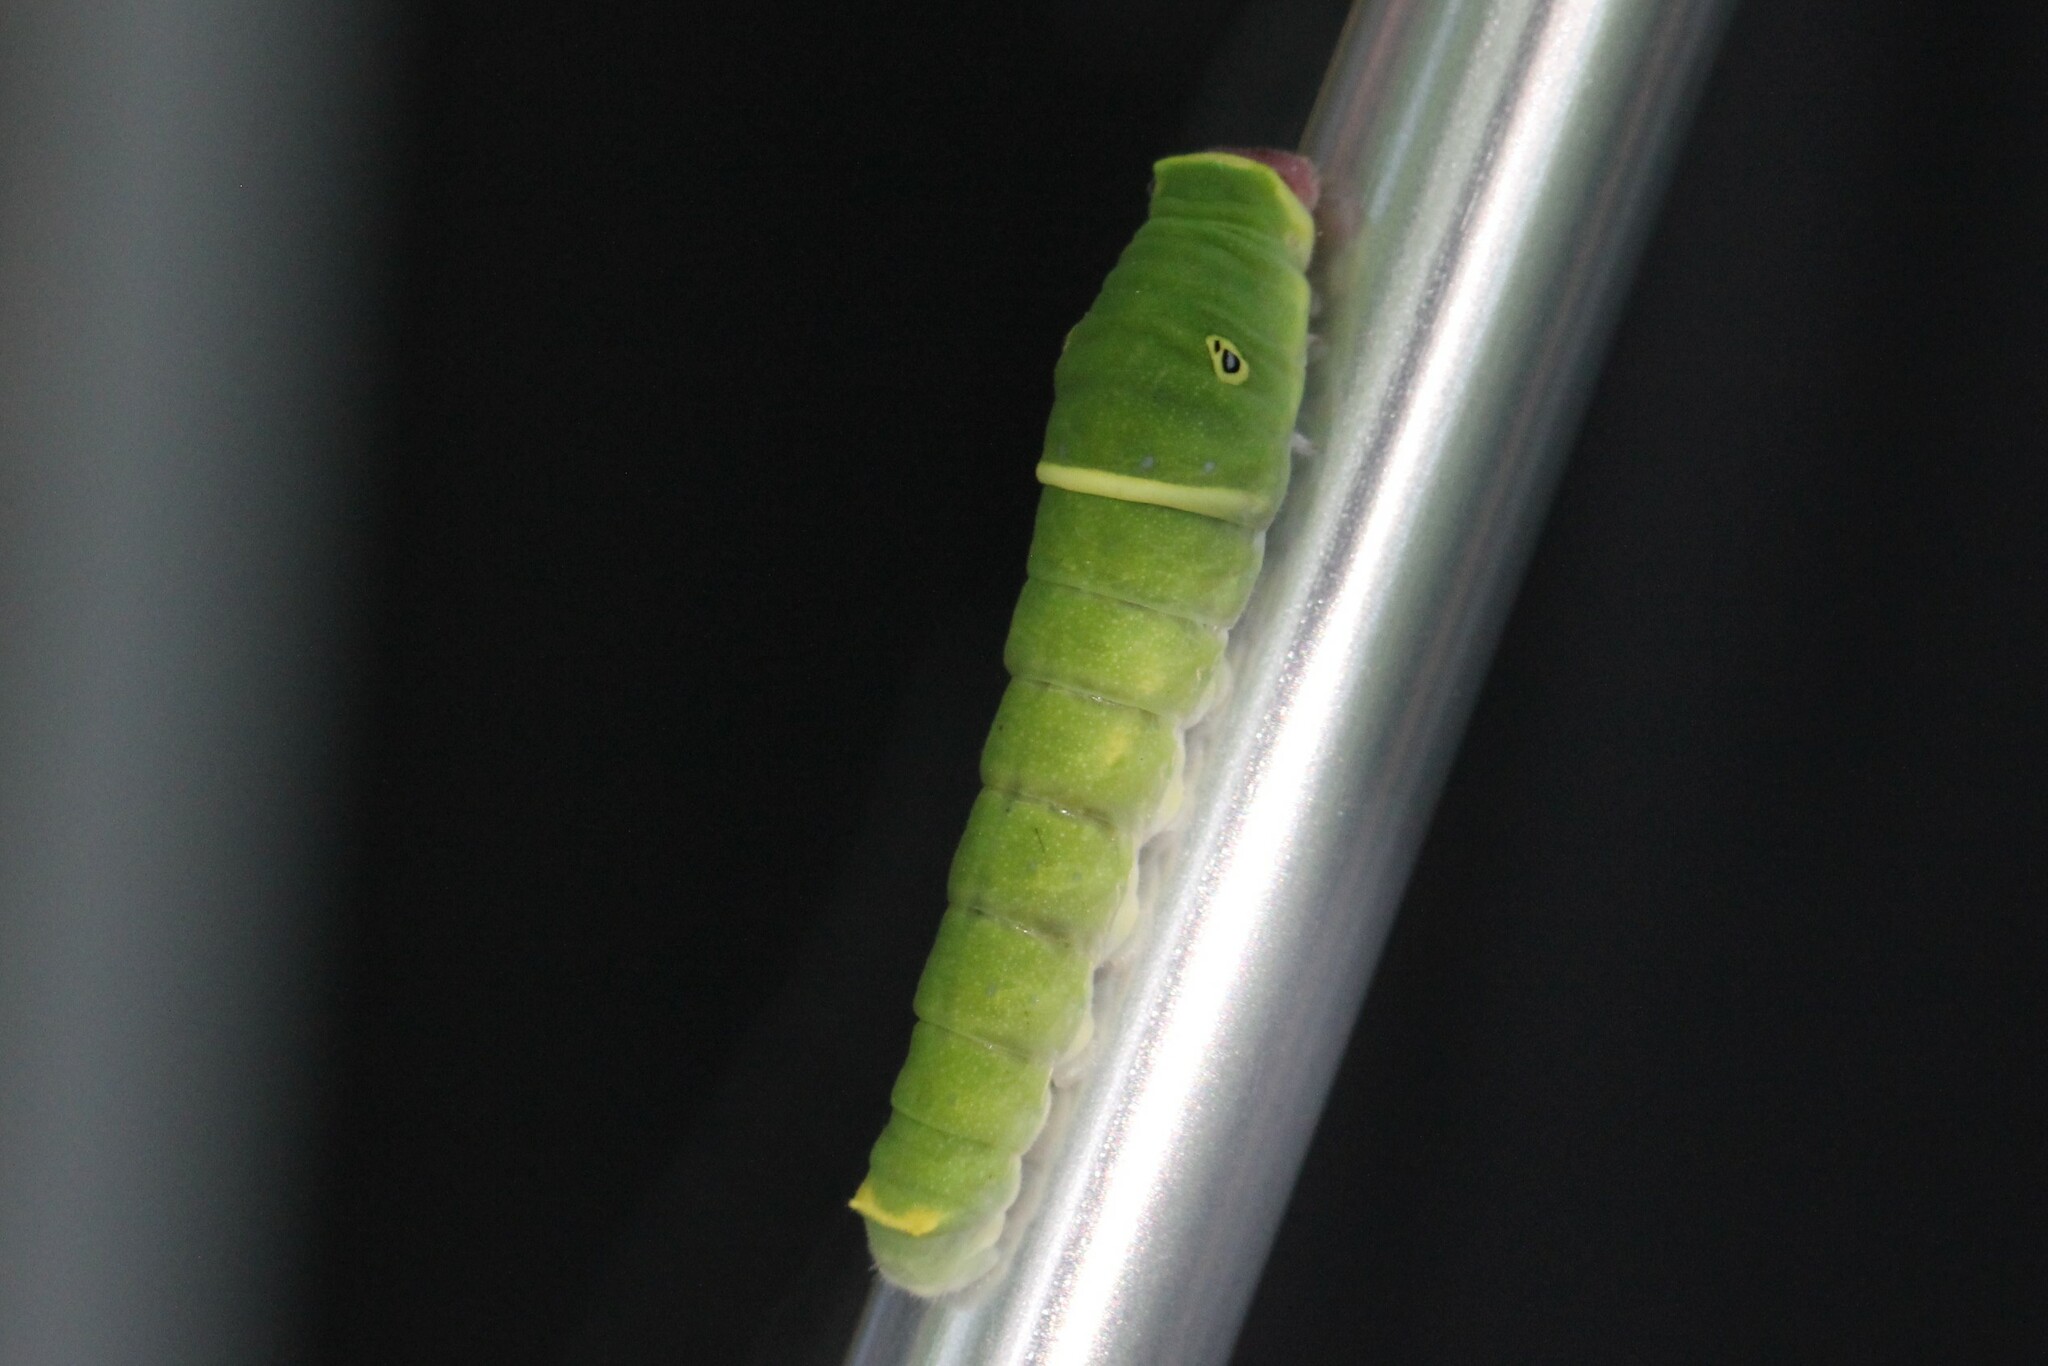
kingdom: Animalia
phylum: Arthropoda
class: Insecta
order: Lepidoptera
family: Papilionidae
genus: Papilio
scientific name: Papilio glaucus
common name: Tiger swallowtail
